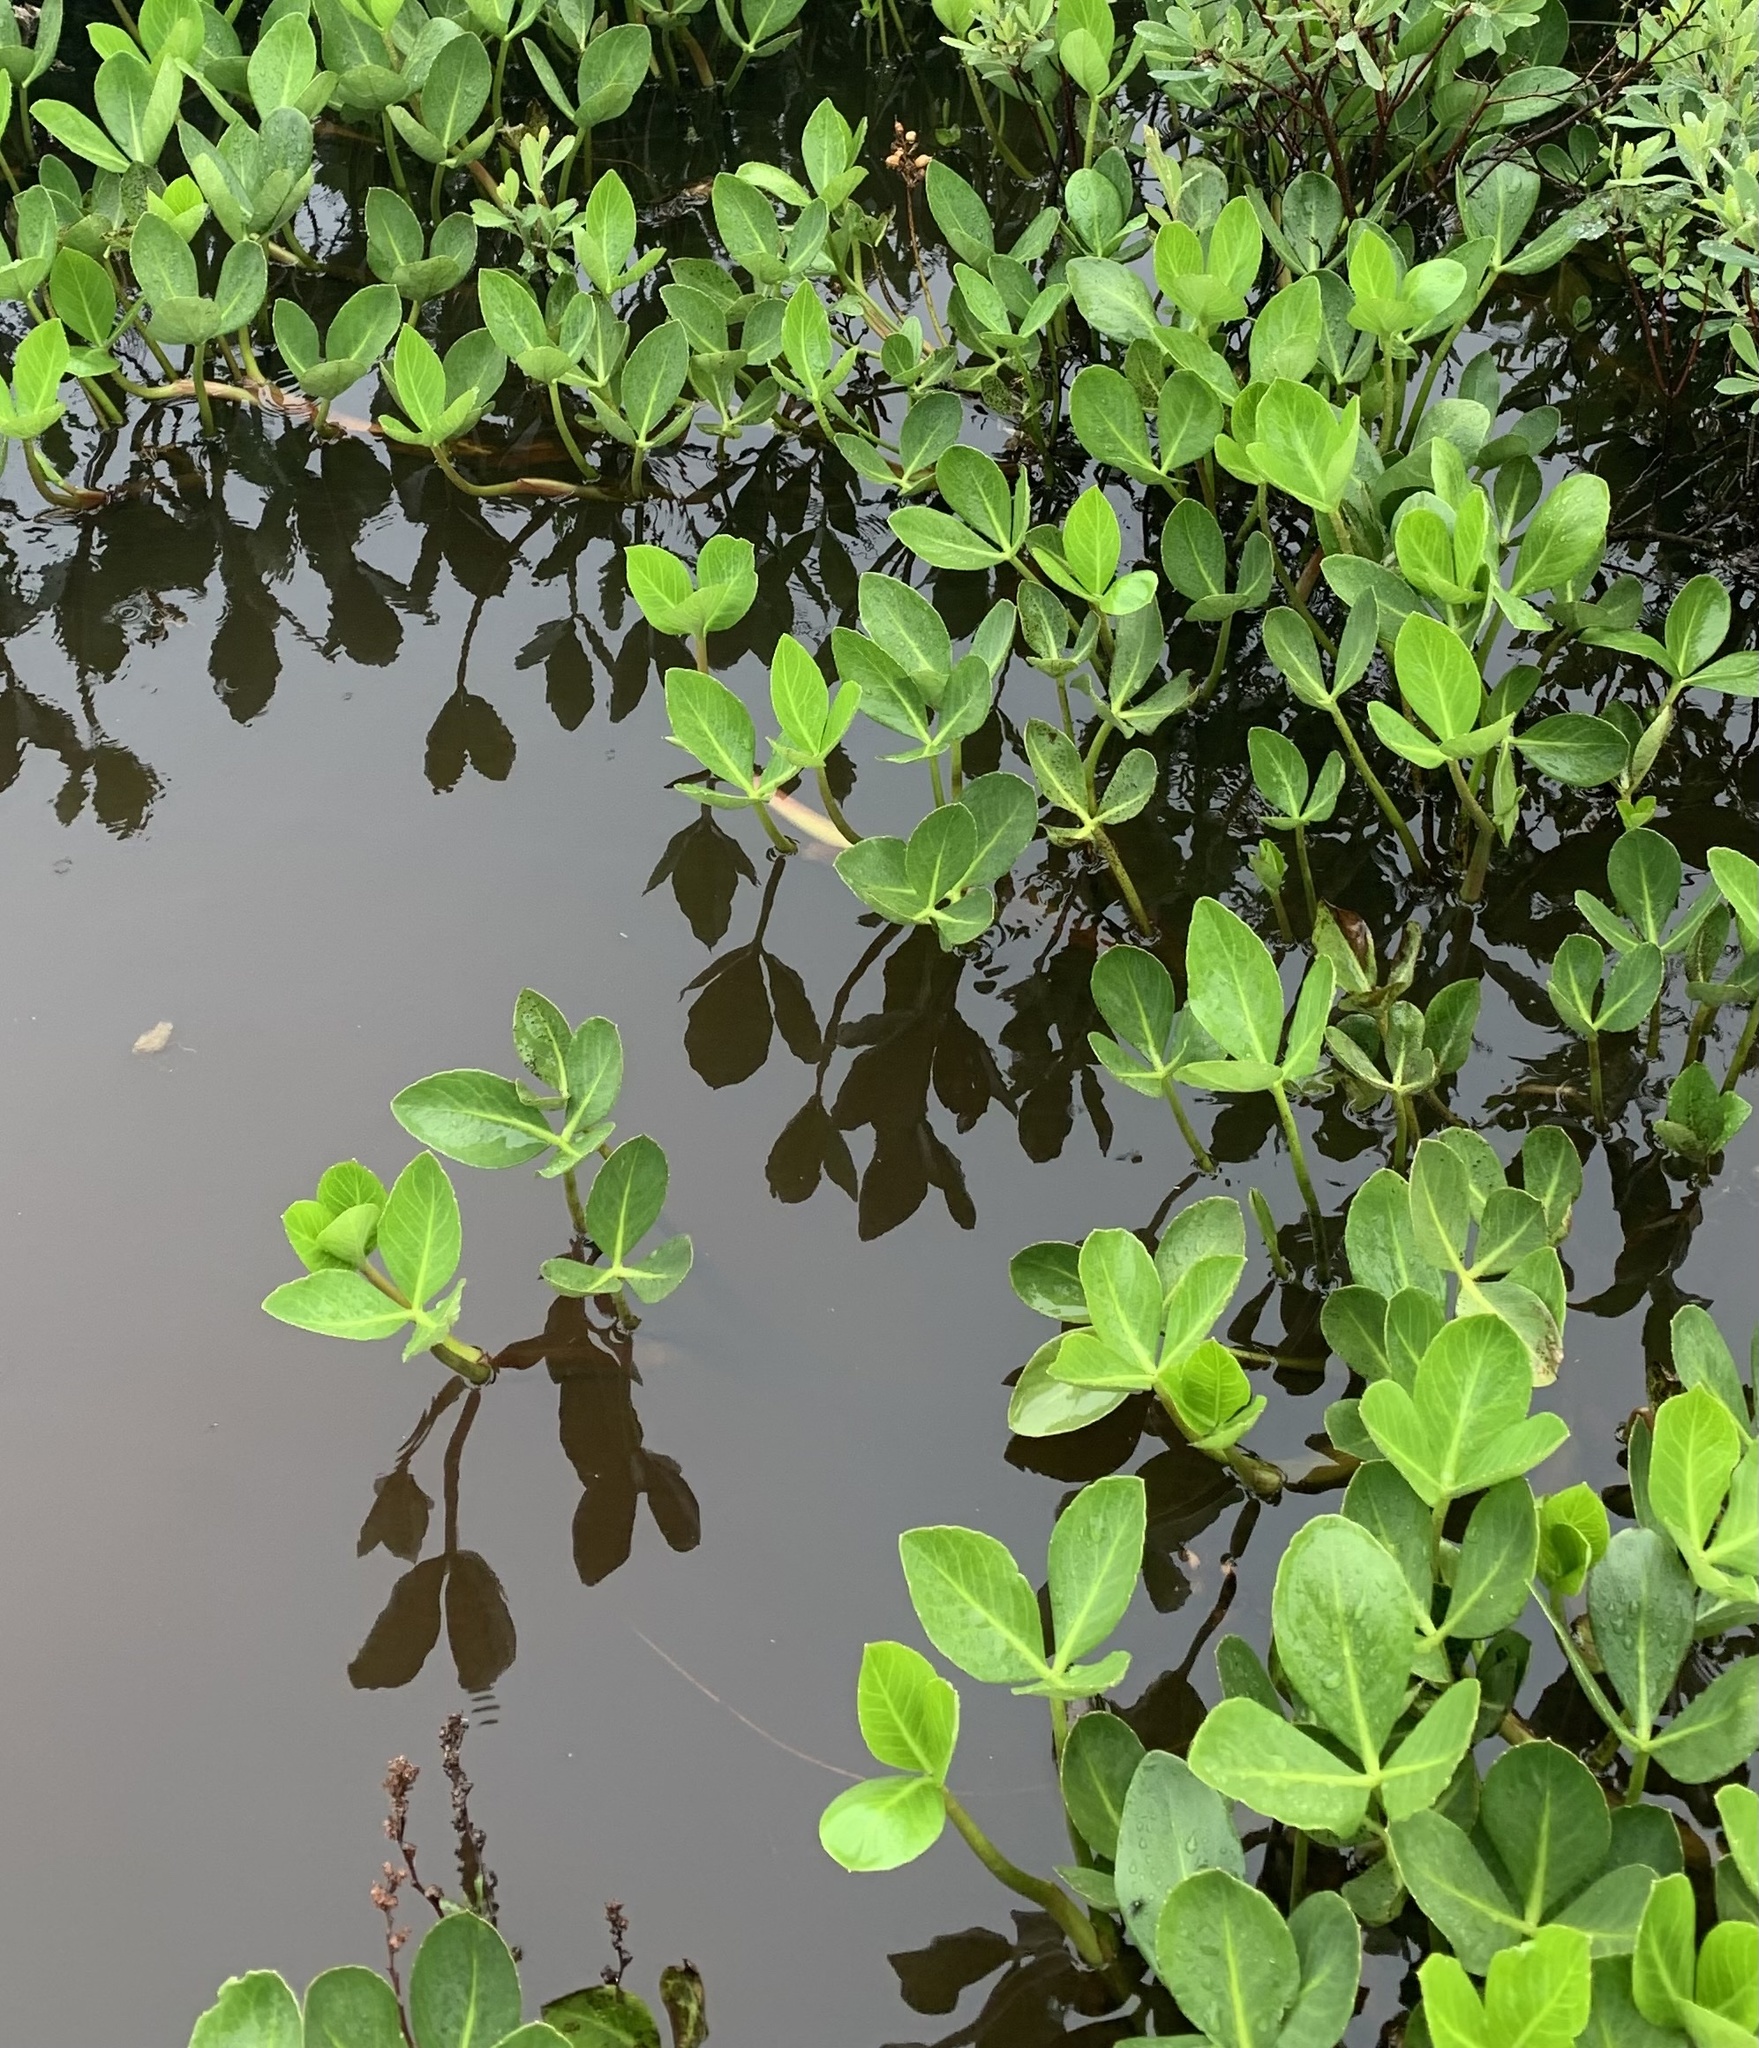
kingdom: Plantae
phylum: Tracheophyta
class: Magnoliopsida
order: Asterales
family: Menyanthaceae
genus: Menyanthes
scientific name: Menyanthes trifoliata
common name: Bogbean
